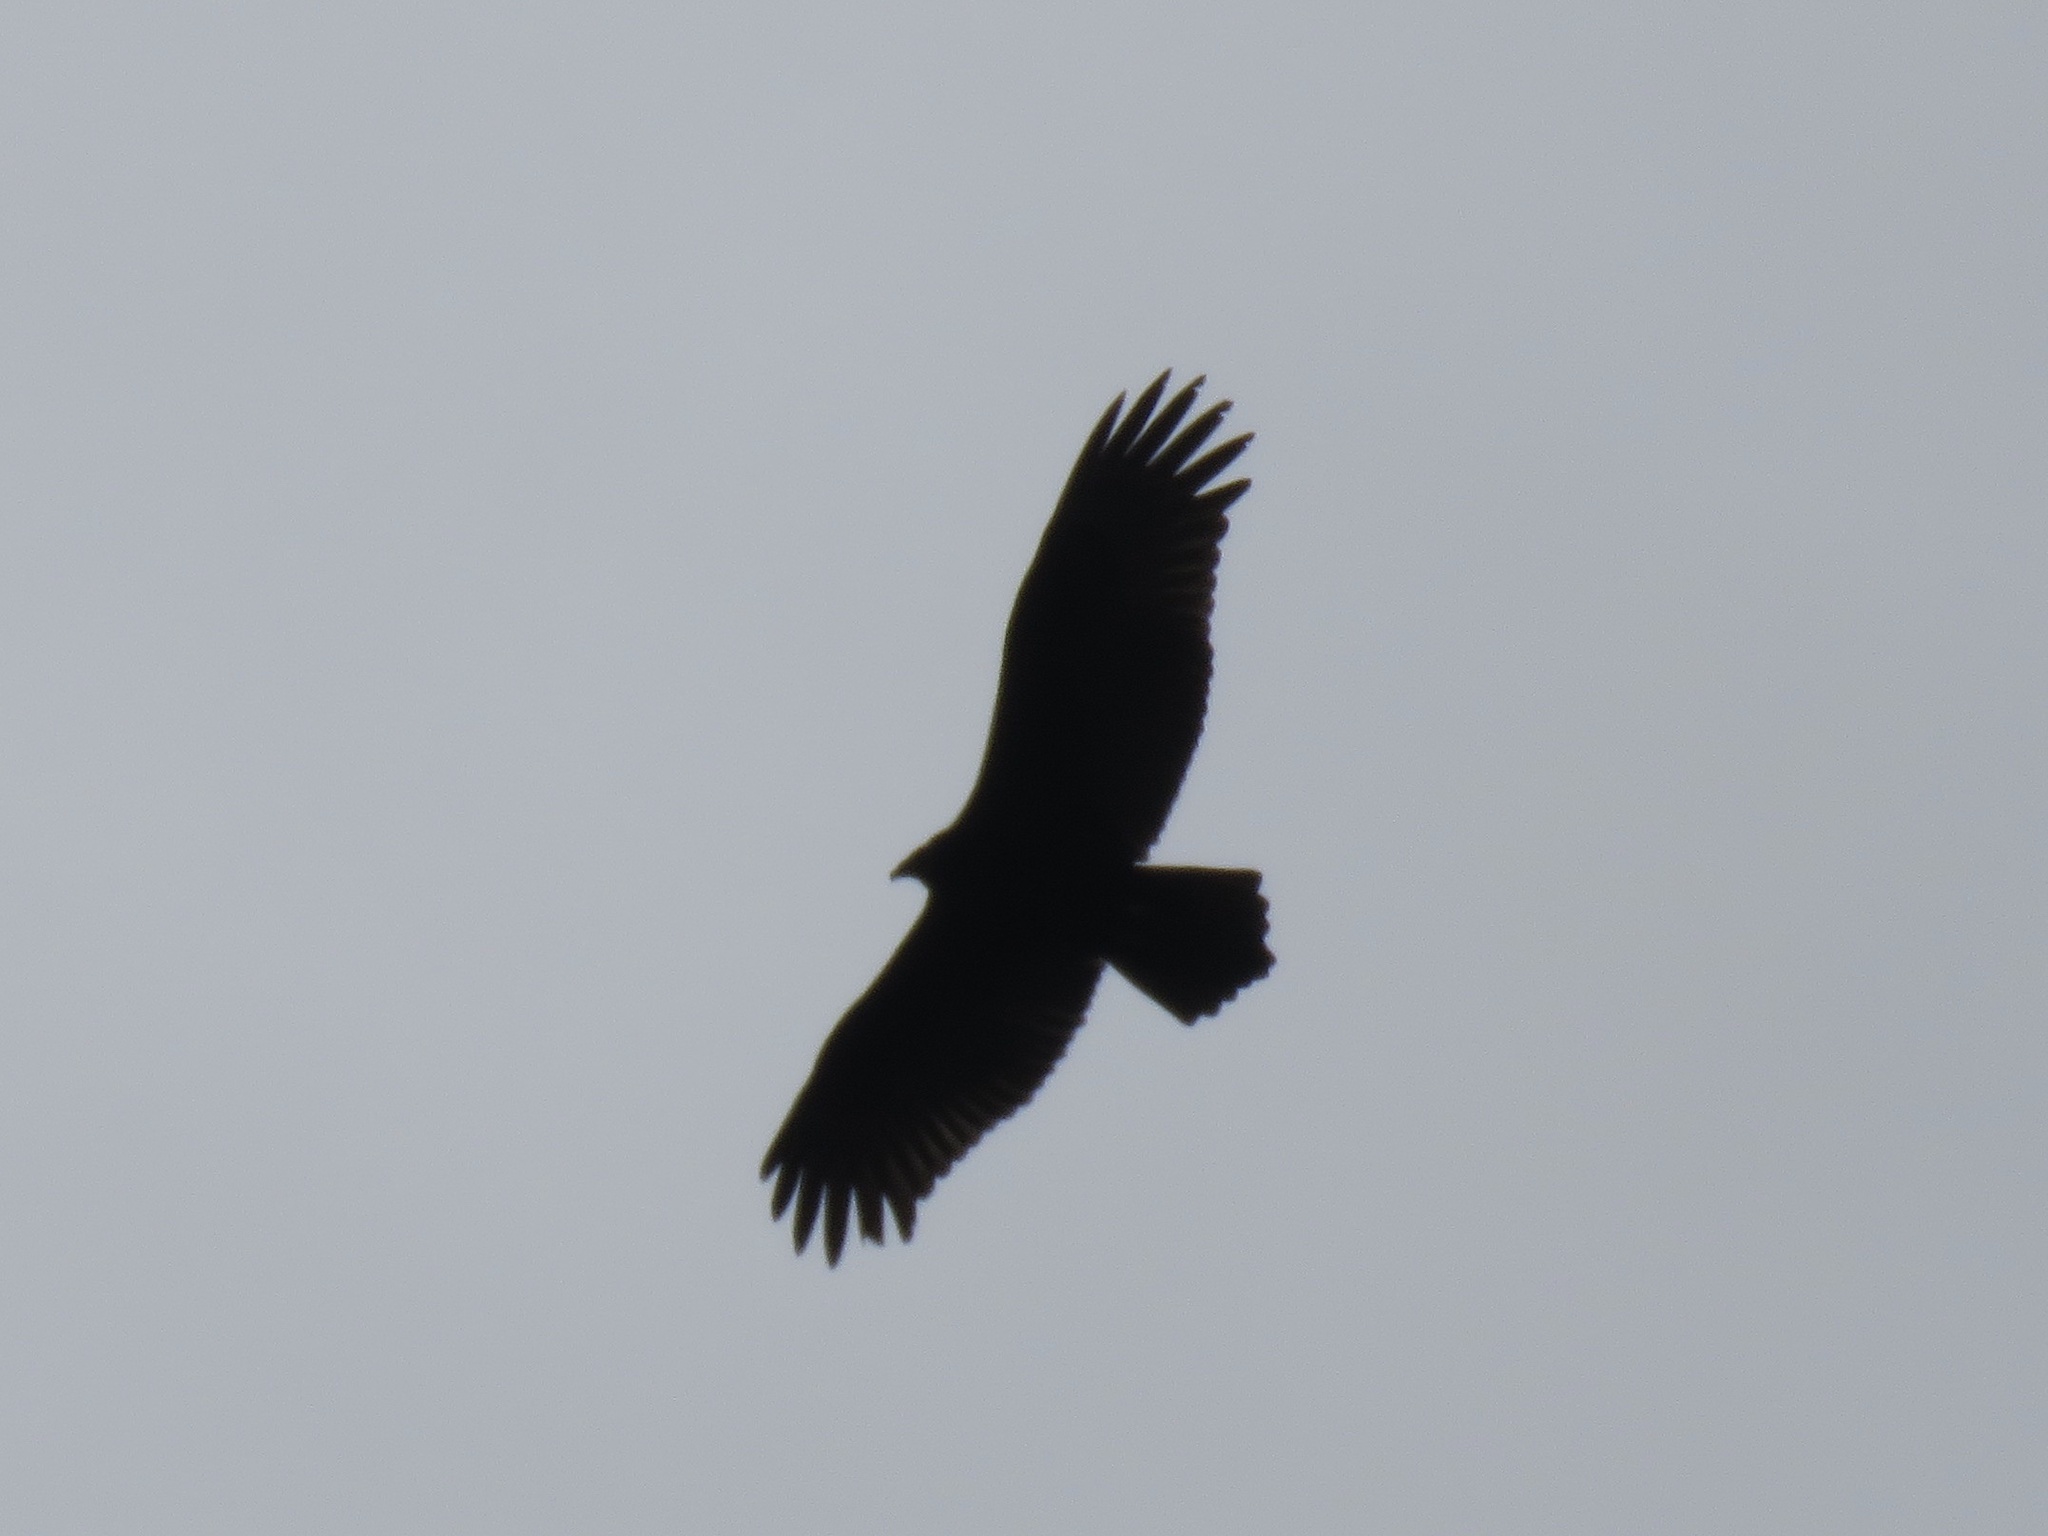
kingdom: Animalia
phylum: Chordata
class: Aves
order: Accipitriformes
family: Cathartidae
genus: Cathartes
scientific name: Cathartes aura
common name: Turkey vulture
